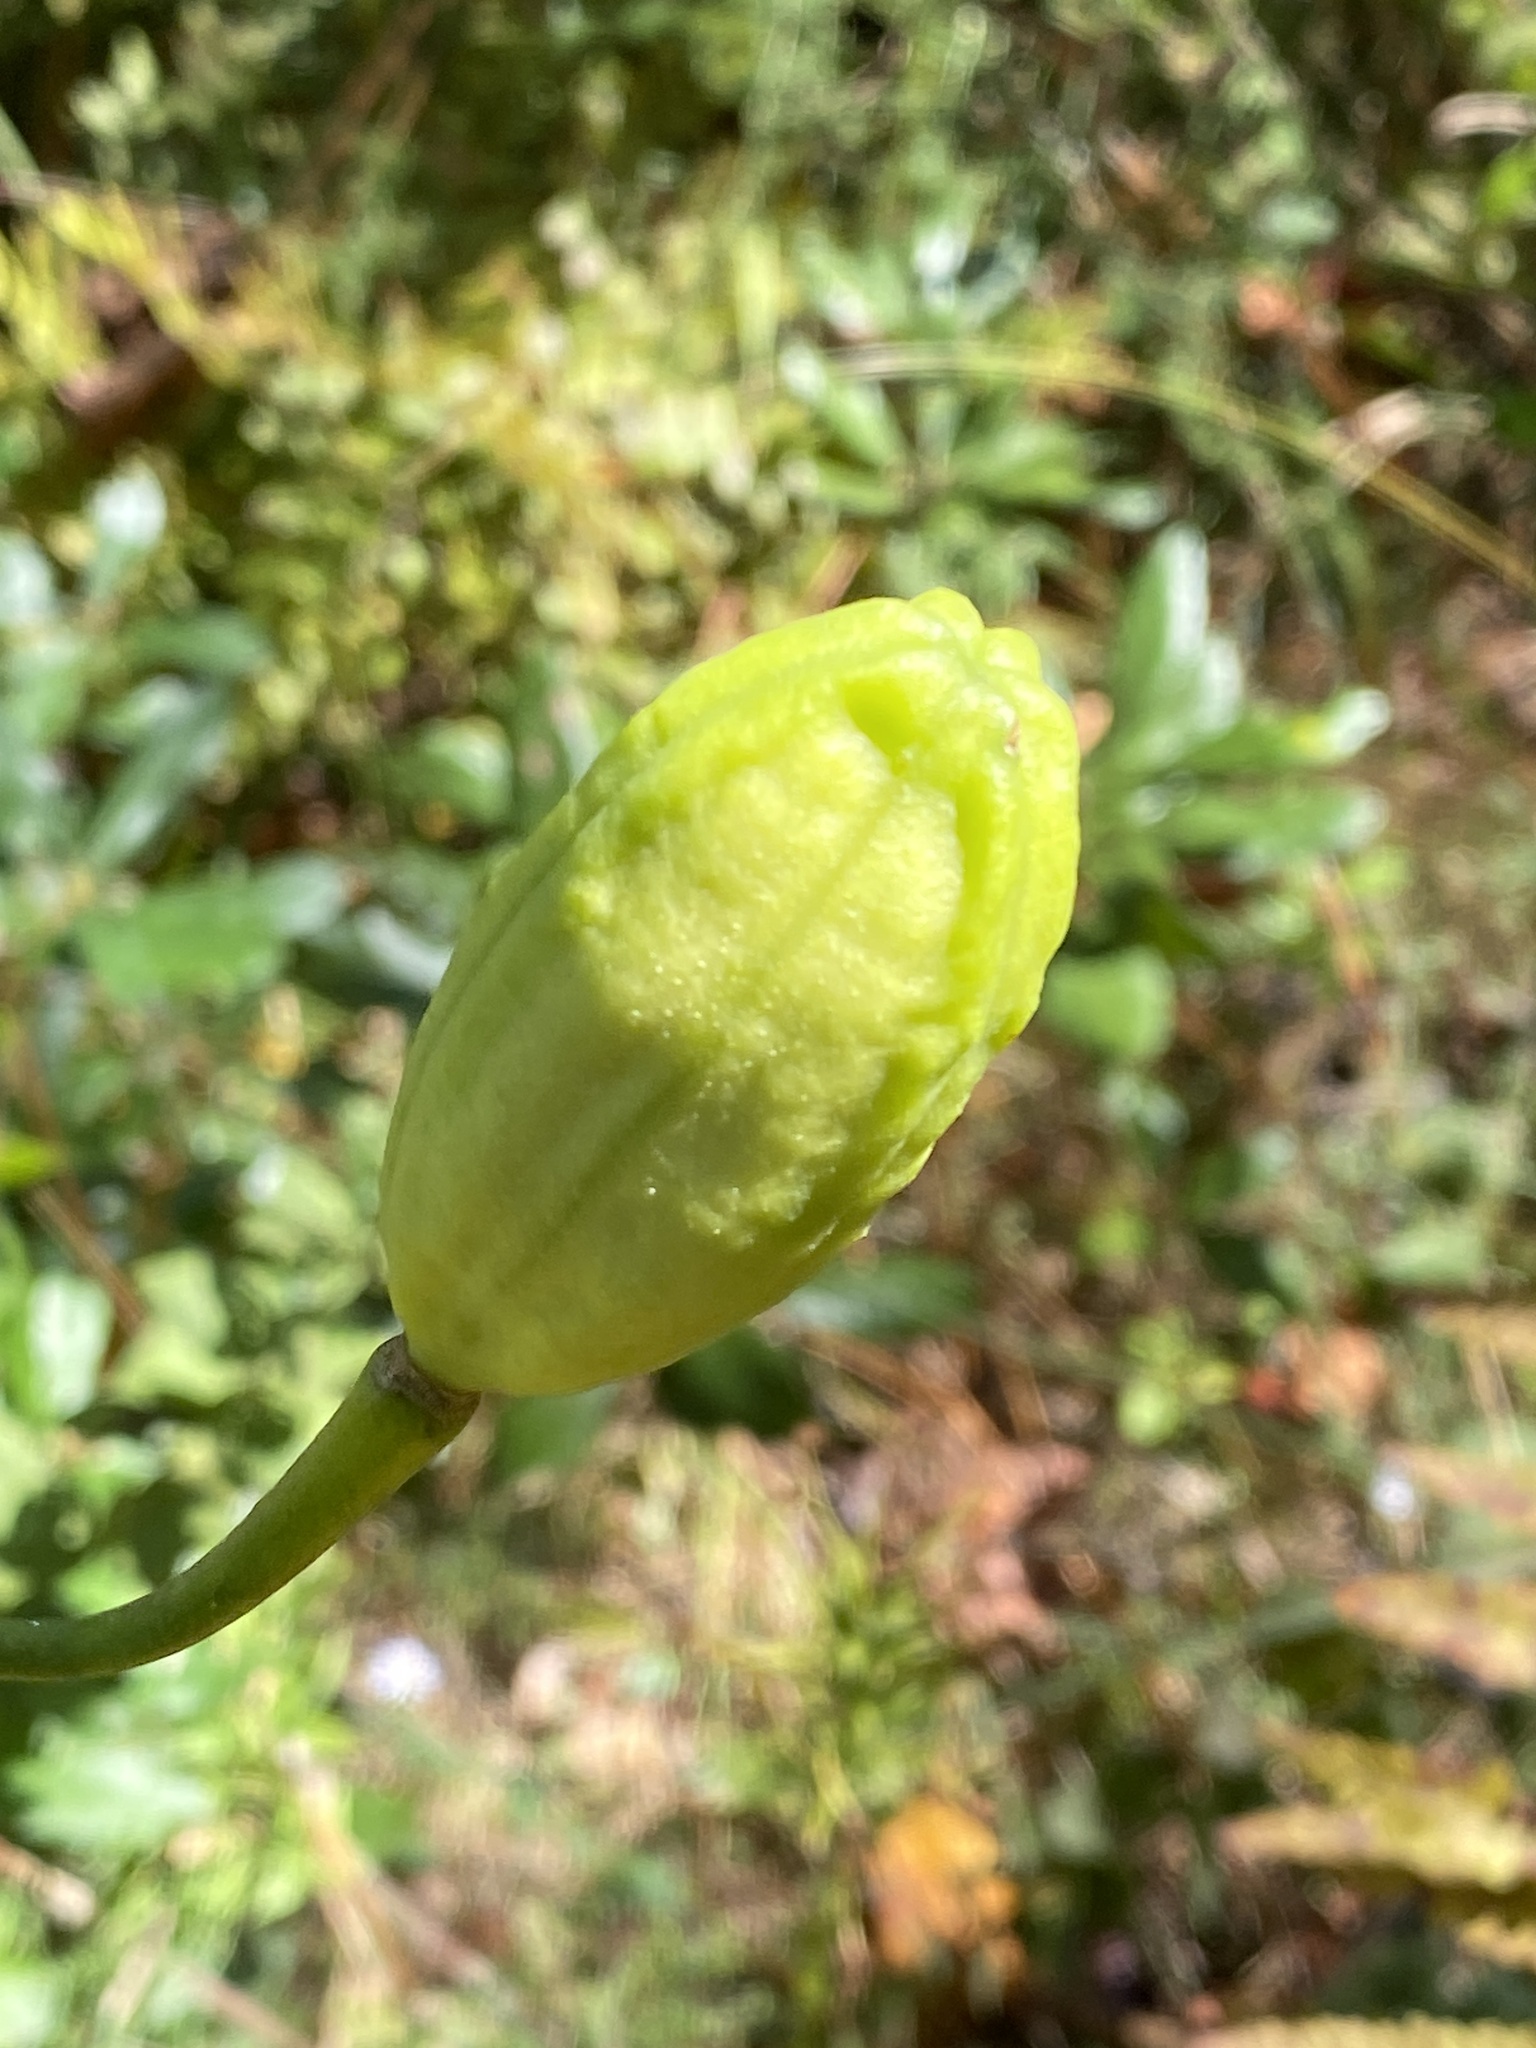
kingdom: Plantae
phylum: Tracheophyta
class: Liliopsida
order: Liliales
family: Liliaceae
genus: Lilium
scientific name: Lilium pyrophilum
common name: Sandhills lily
